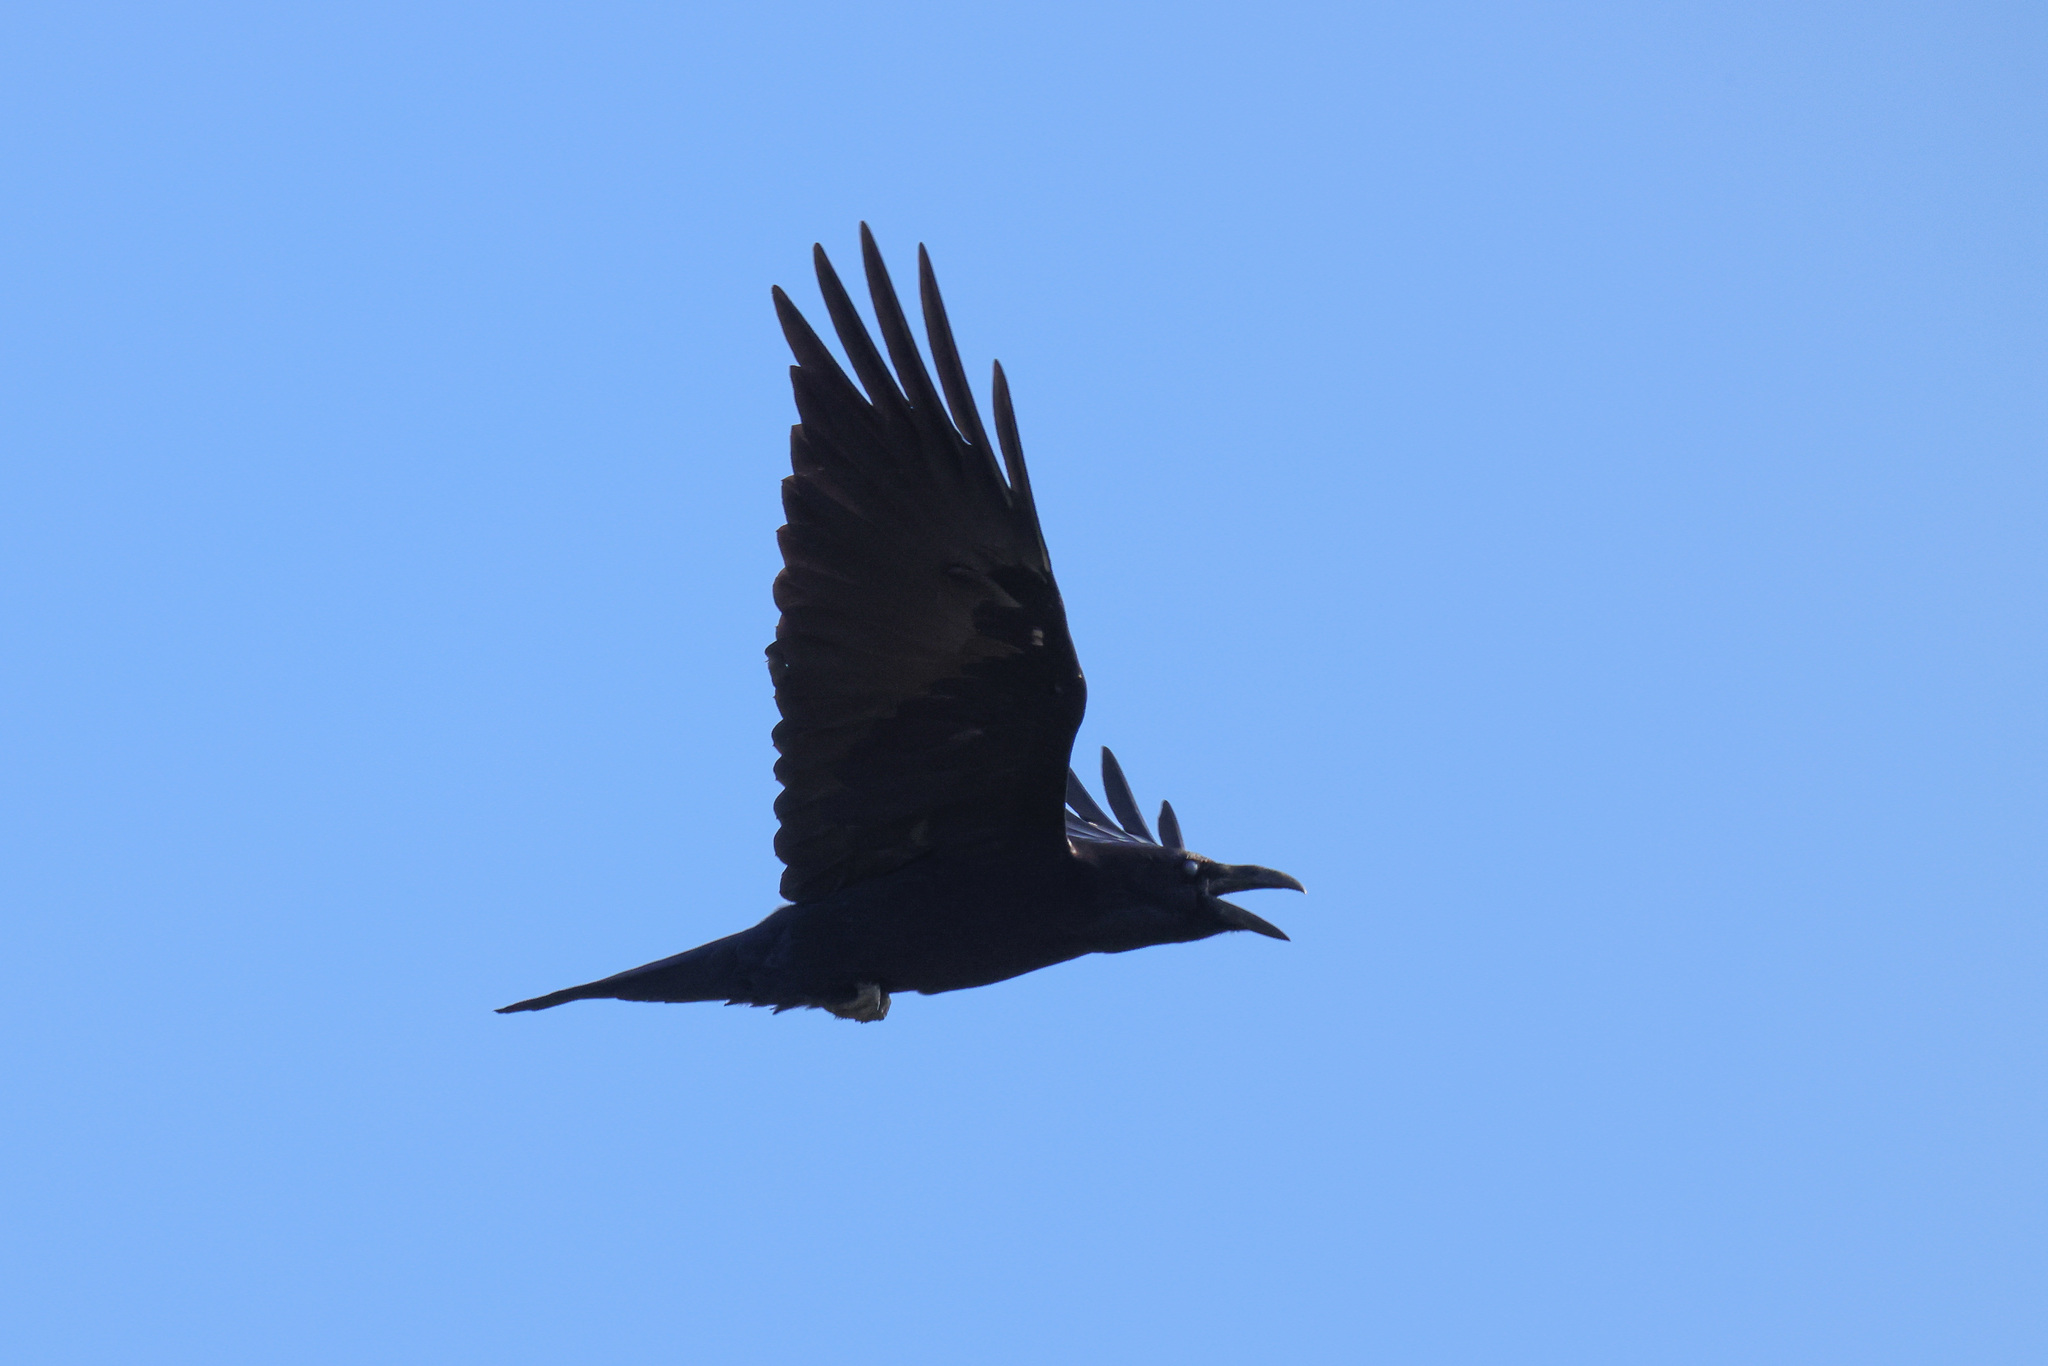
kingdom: Animalia
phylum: Chordata
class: Aves
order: Passeriformes
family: Corvidae
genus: Corvus
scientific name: Corvus corax
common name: Common raven
